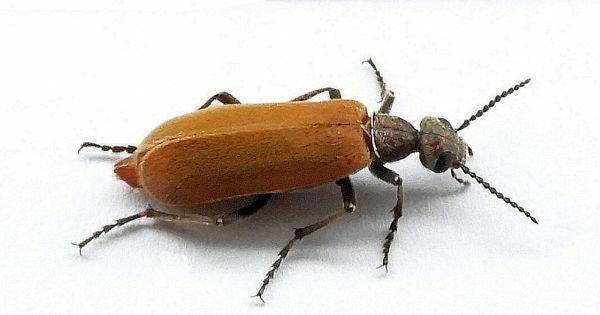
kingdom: Animalia
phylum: Arthropoda
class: Insecta
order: Coleoptera
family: Meloidae
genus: Epicauta
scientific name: Epicauta ochrea
